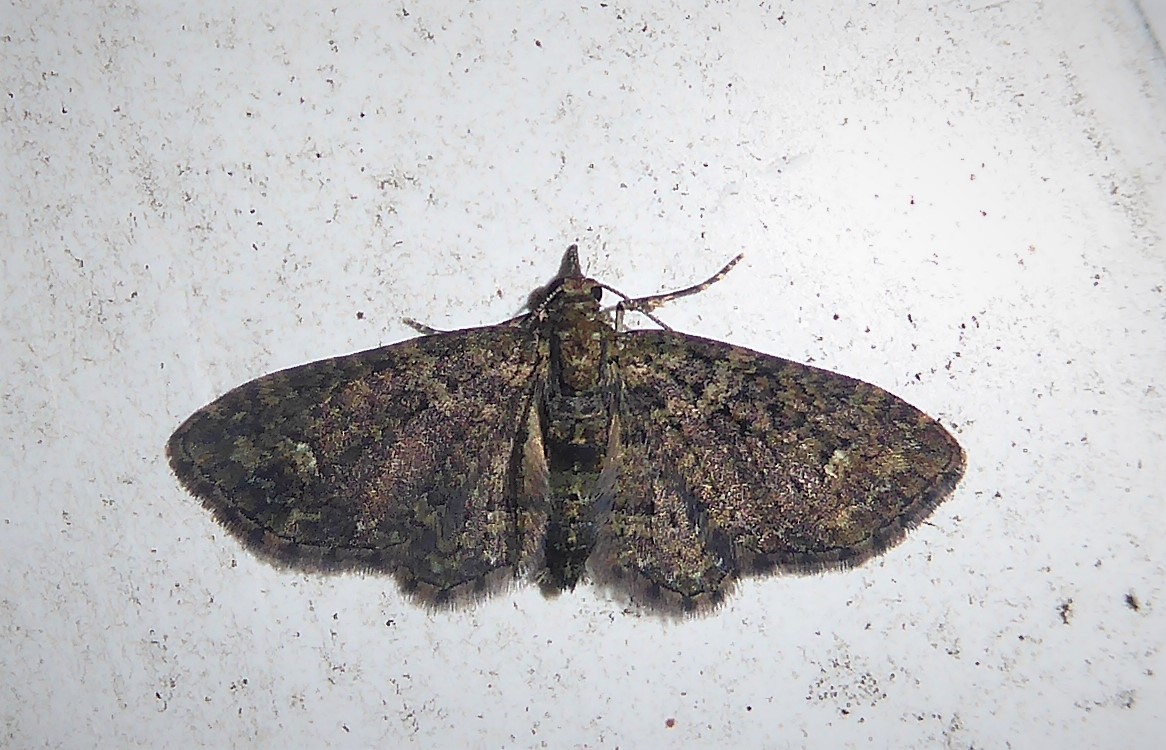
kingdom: Animalia
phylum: Arthropoda
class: Insecta
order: Lepidoptera
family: Geometridae
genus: Pasiphilodes
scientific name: Pasiphilodes testulata
